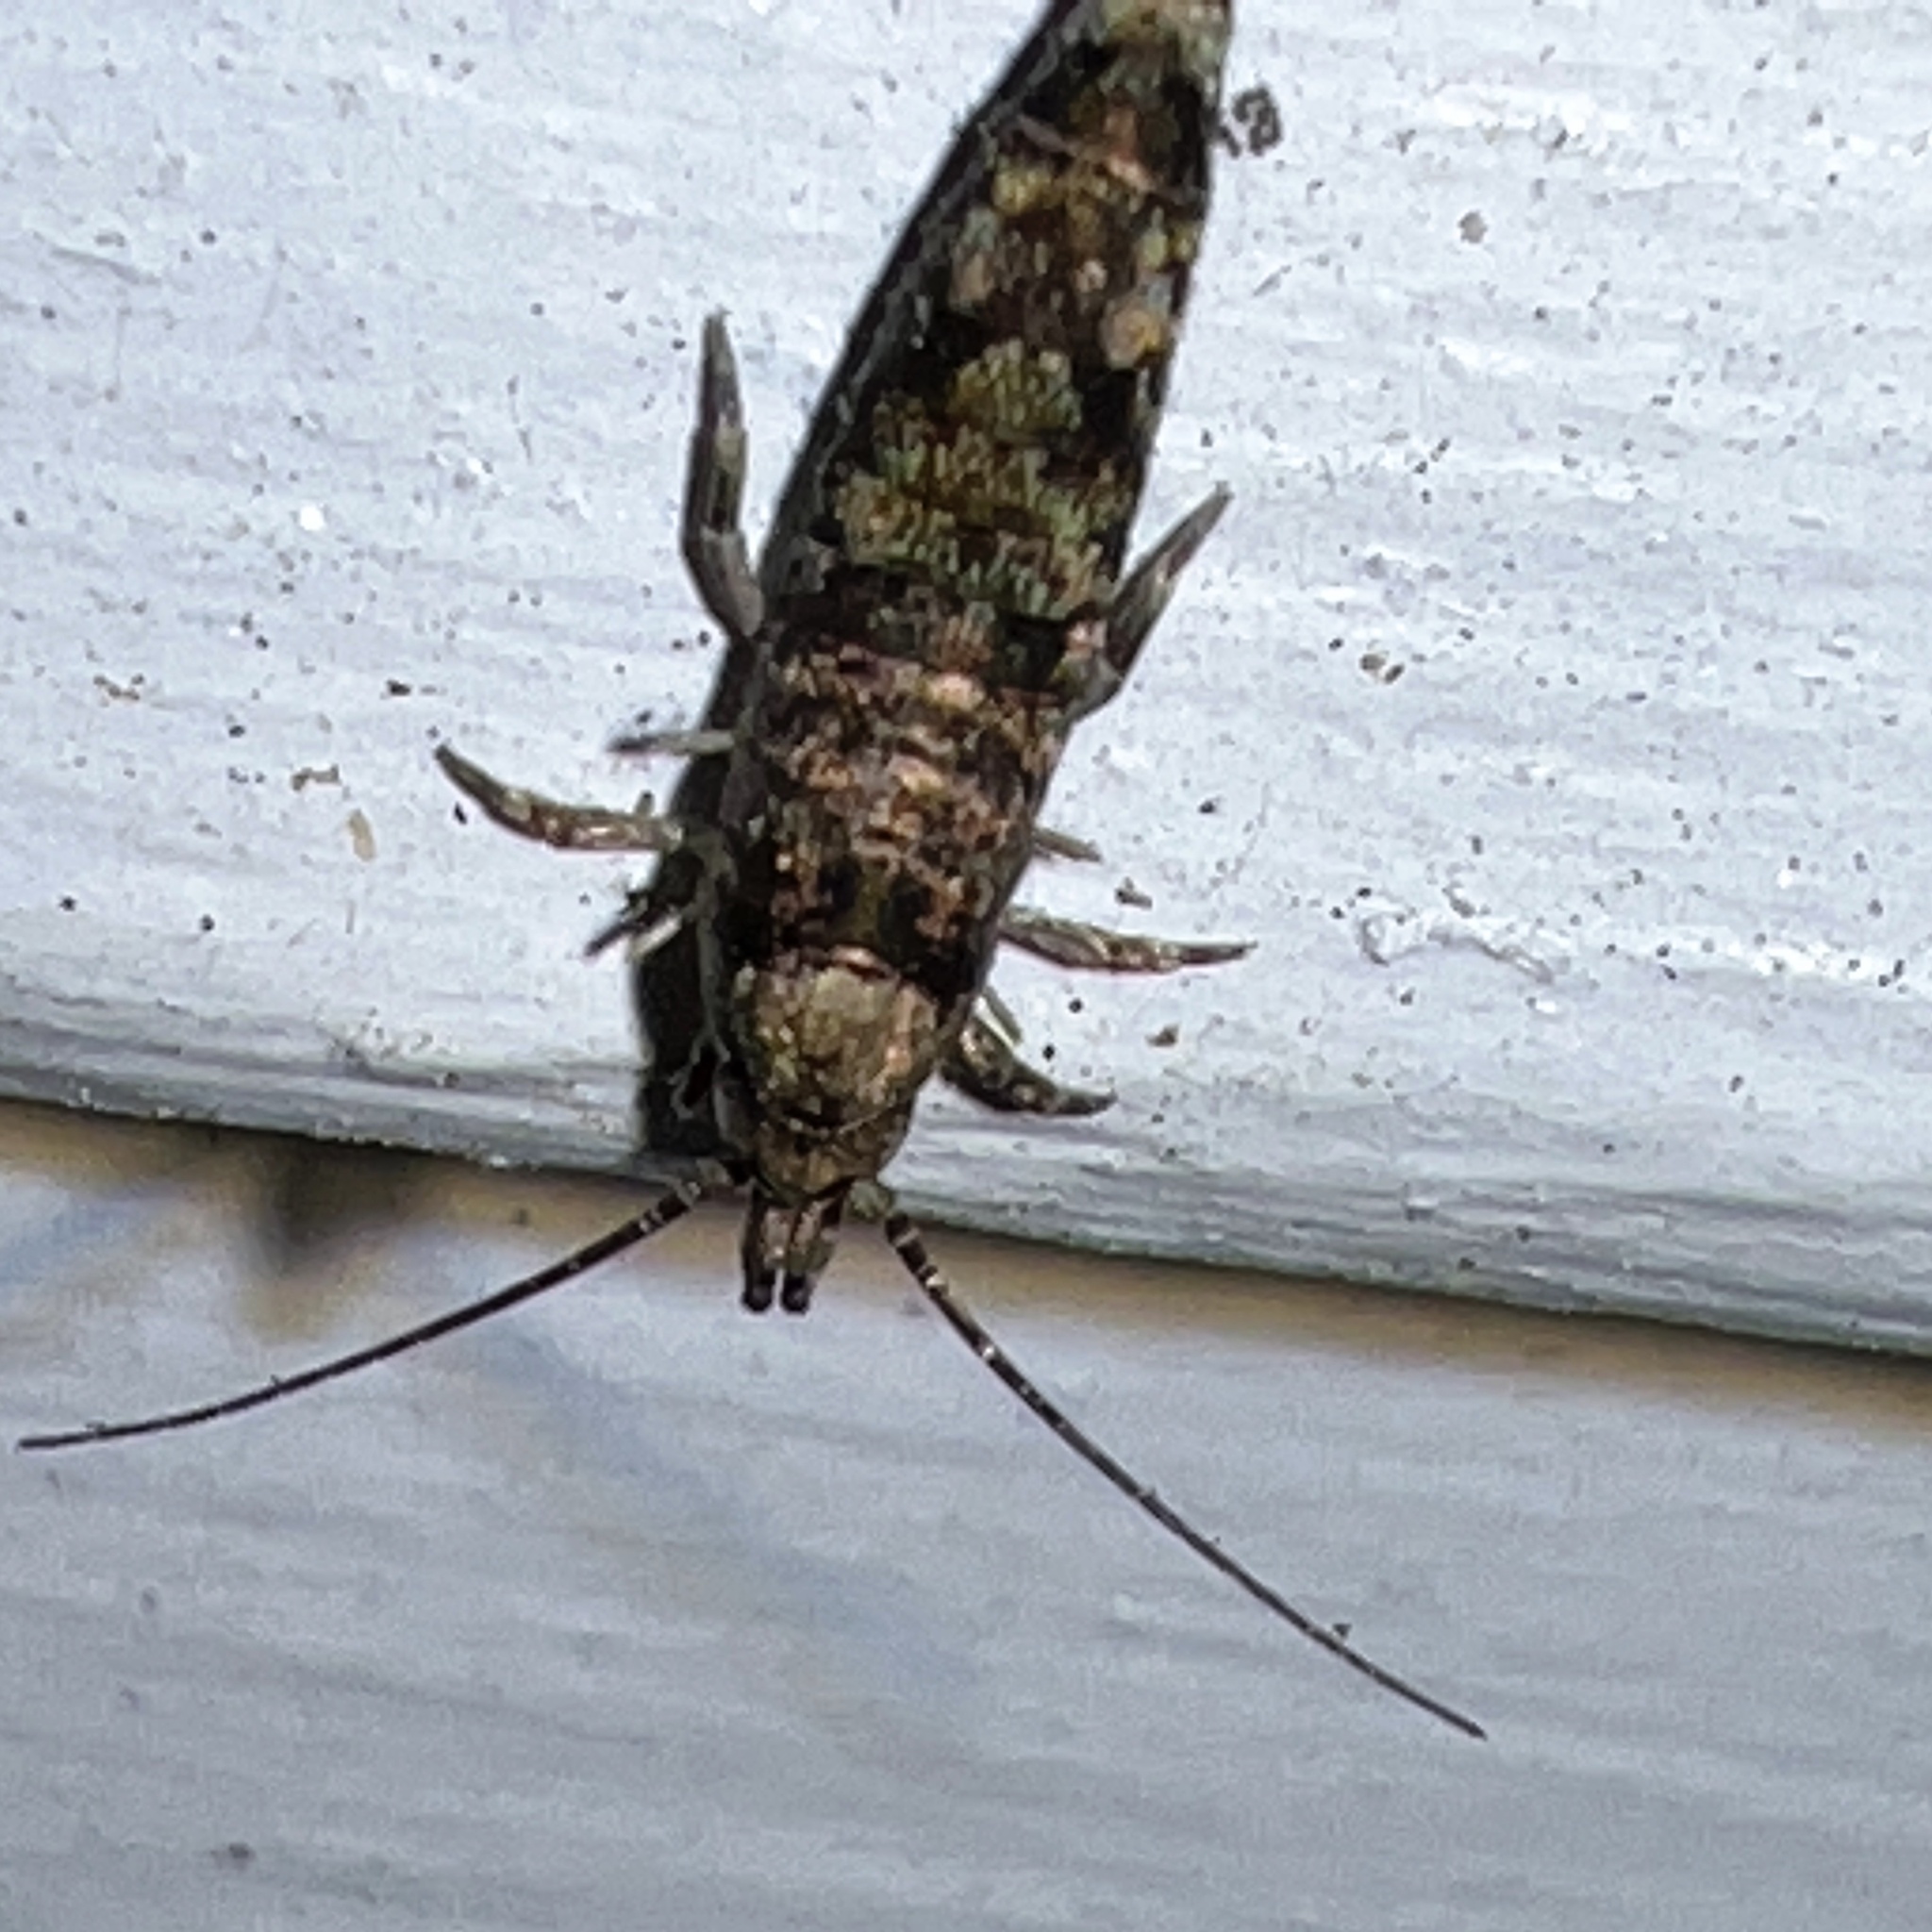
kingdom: Animalia
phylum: Arthropoda
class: Insecta
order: Archaeognatha
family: Machilidae
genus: Trigoniophthalmus
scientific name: Trigoniophthalmus alternatus
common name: Jumping bristletail
